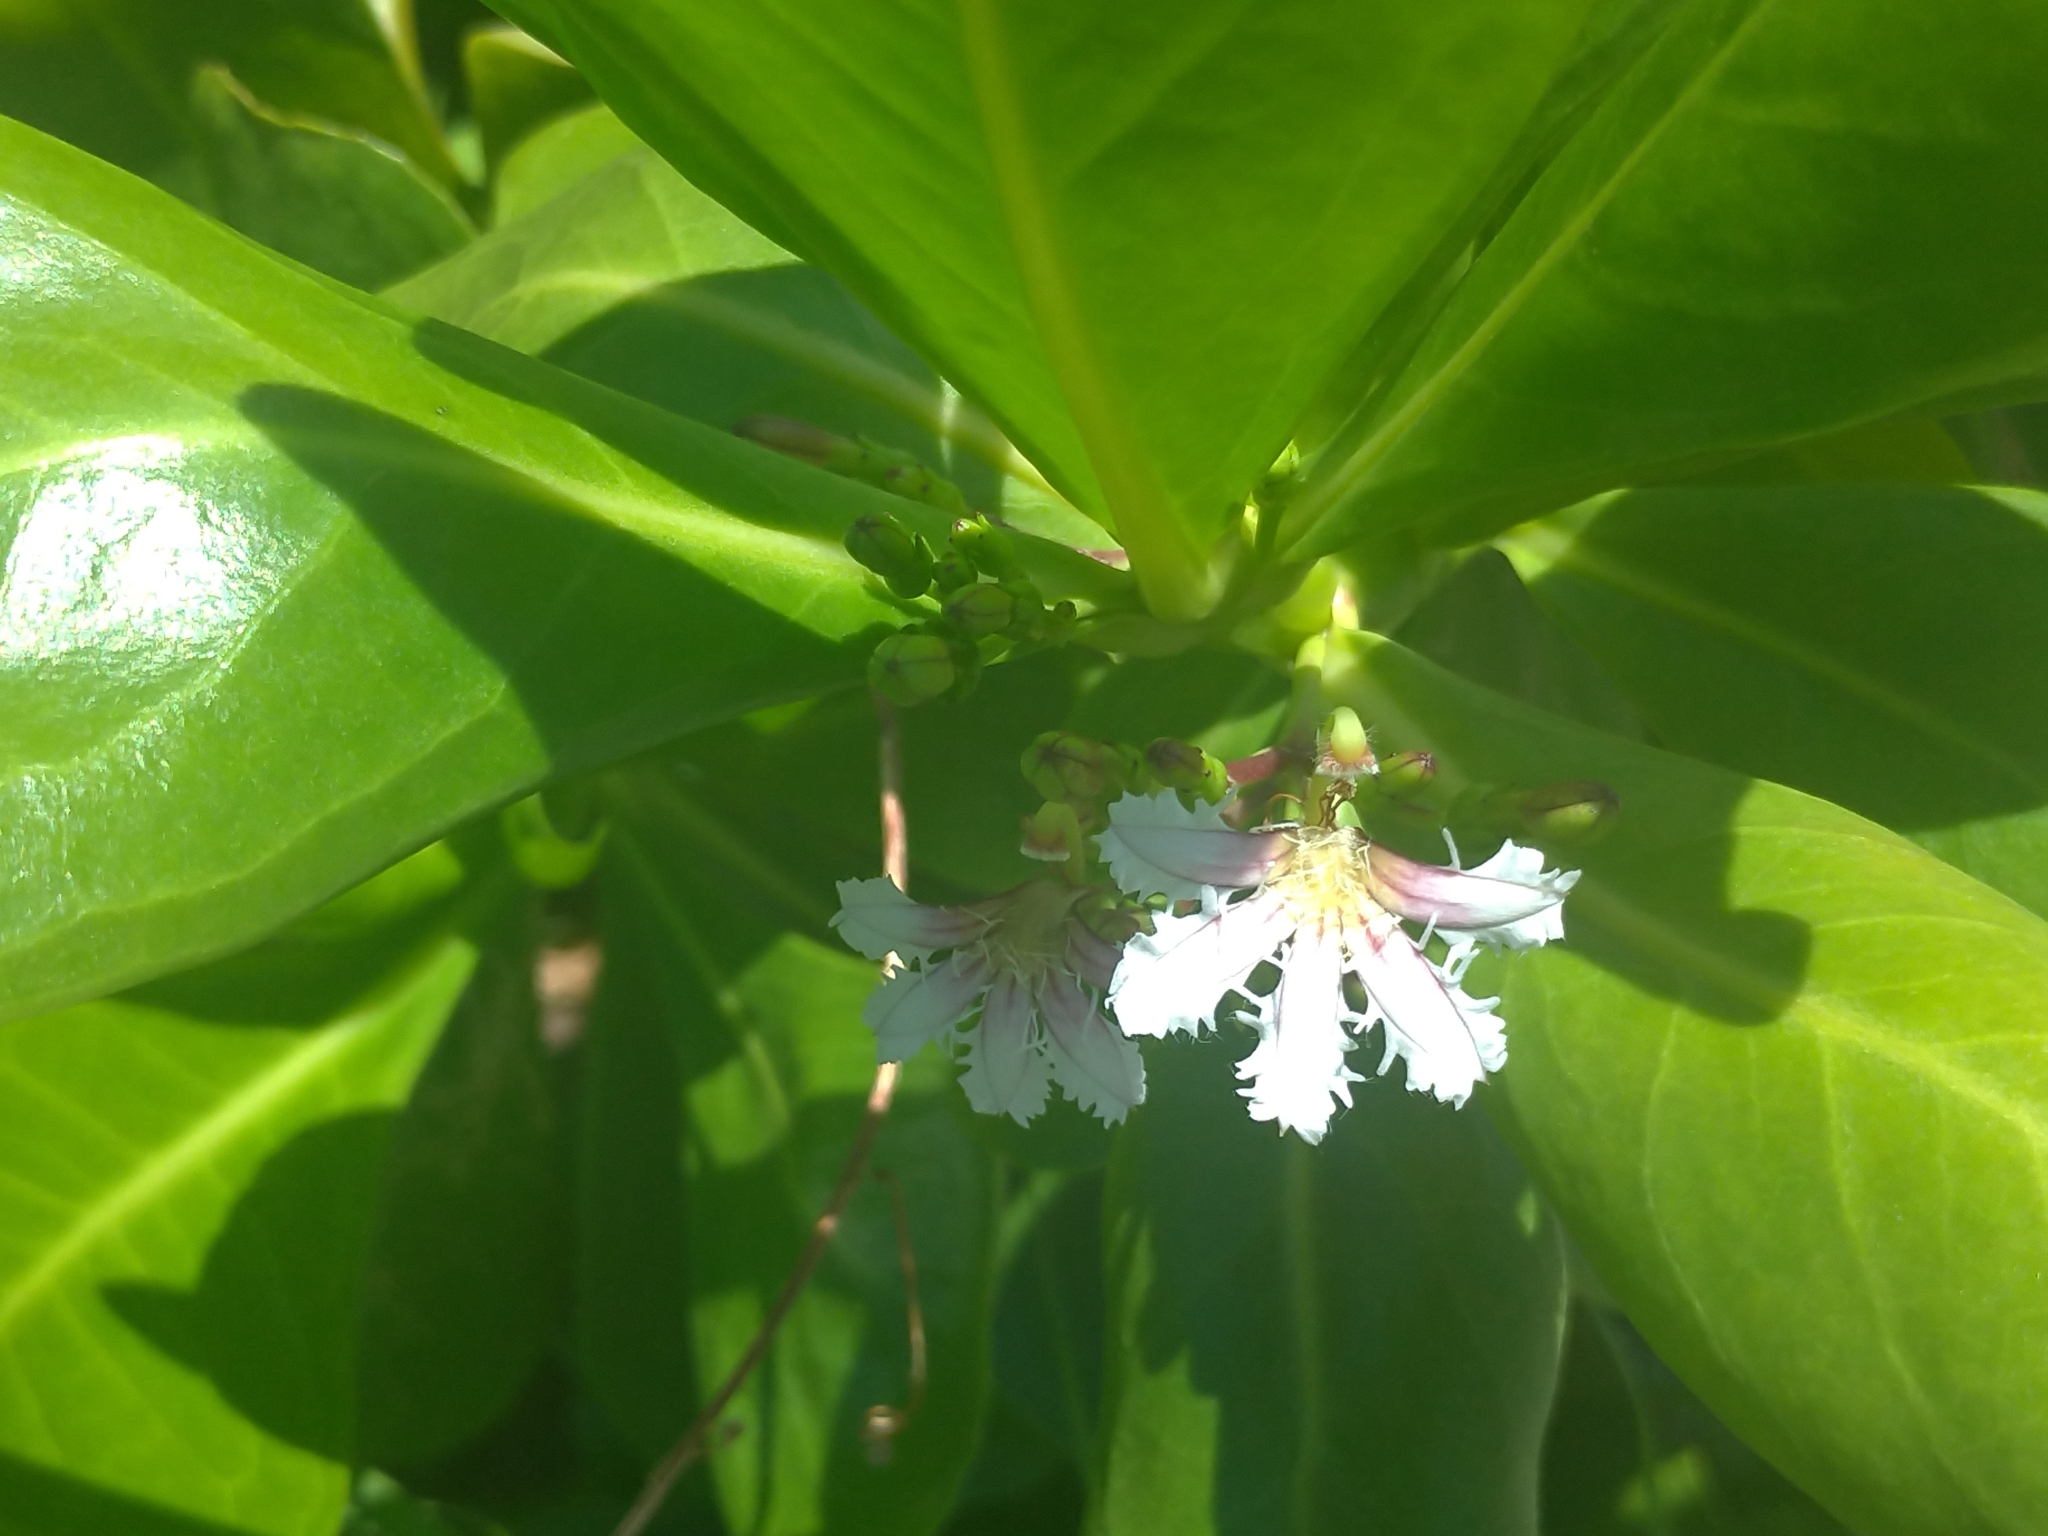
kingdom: Plantae
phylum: Tracheophyta
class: Magnoliopsida
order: Asterales
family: Goodeniaceae
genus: Scaevola
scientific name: Scaevola taccada
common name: Sea lettucetree
